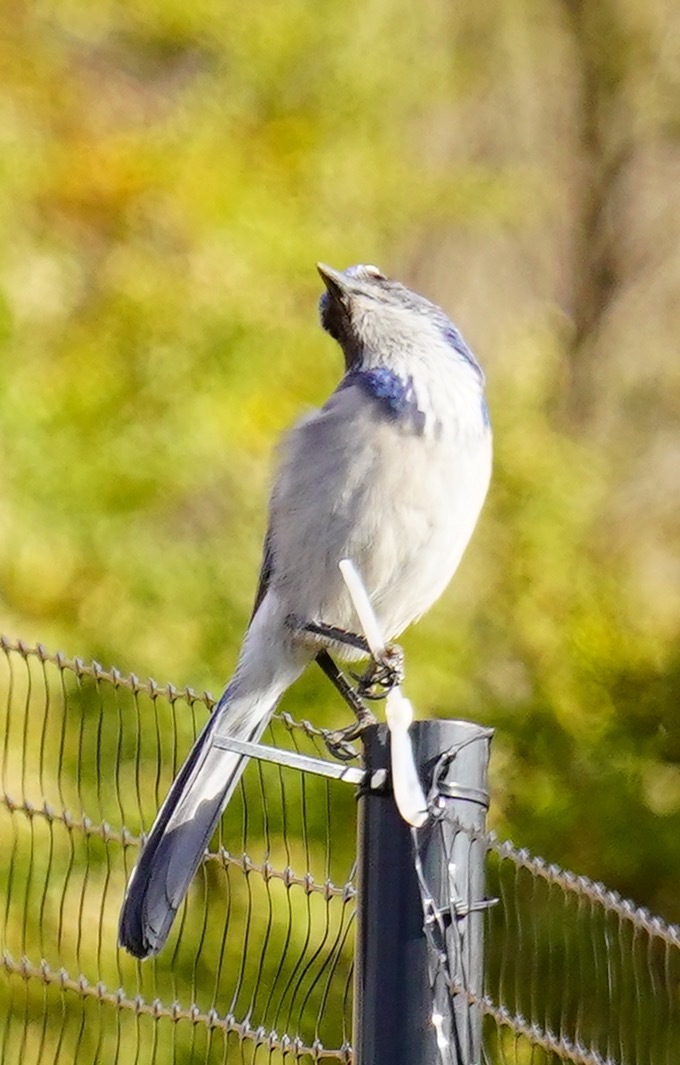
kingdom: Animalia
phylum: Chordata
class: Aves
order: Passeriformes
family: Corvidae
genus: Aphelocoma
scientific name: Aphelocoma californica
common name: California scrub-jay
